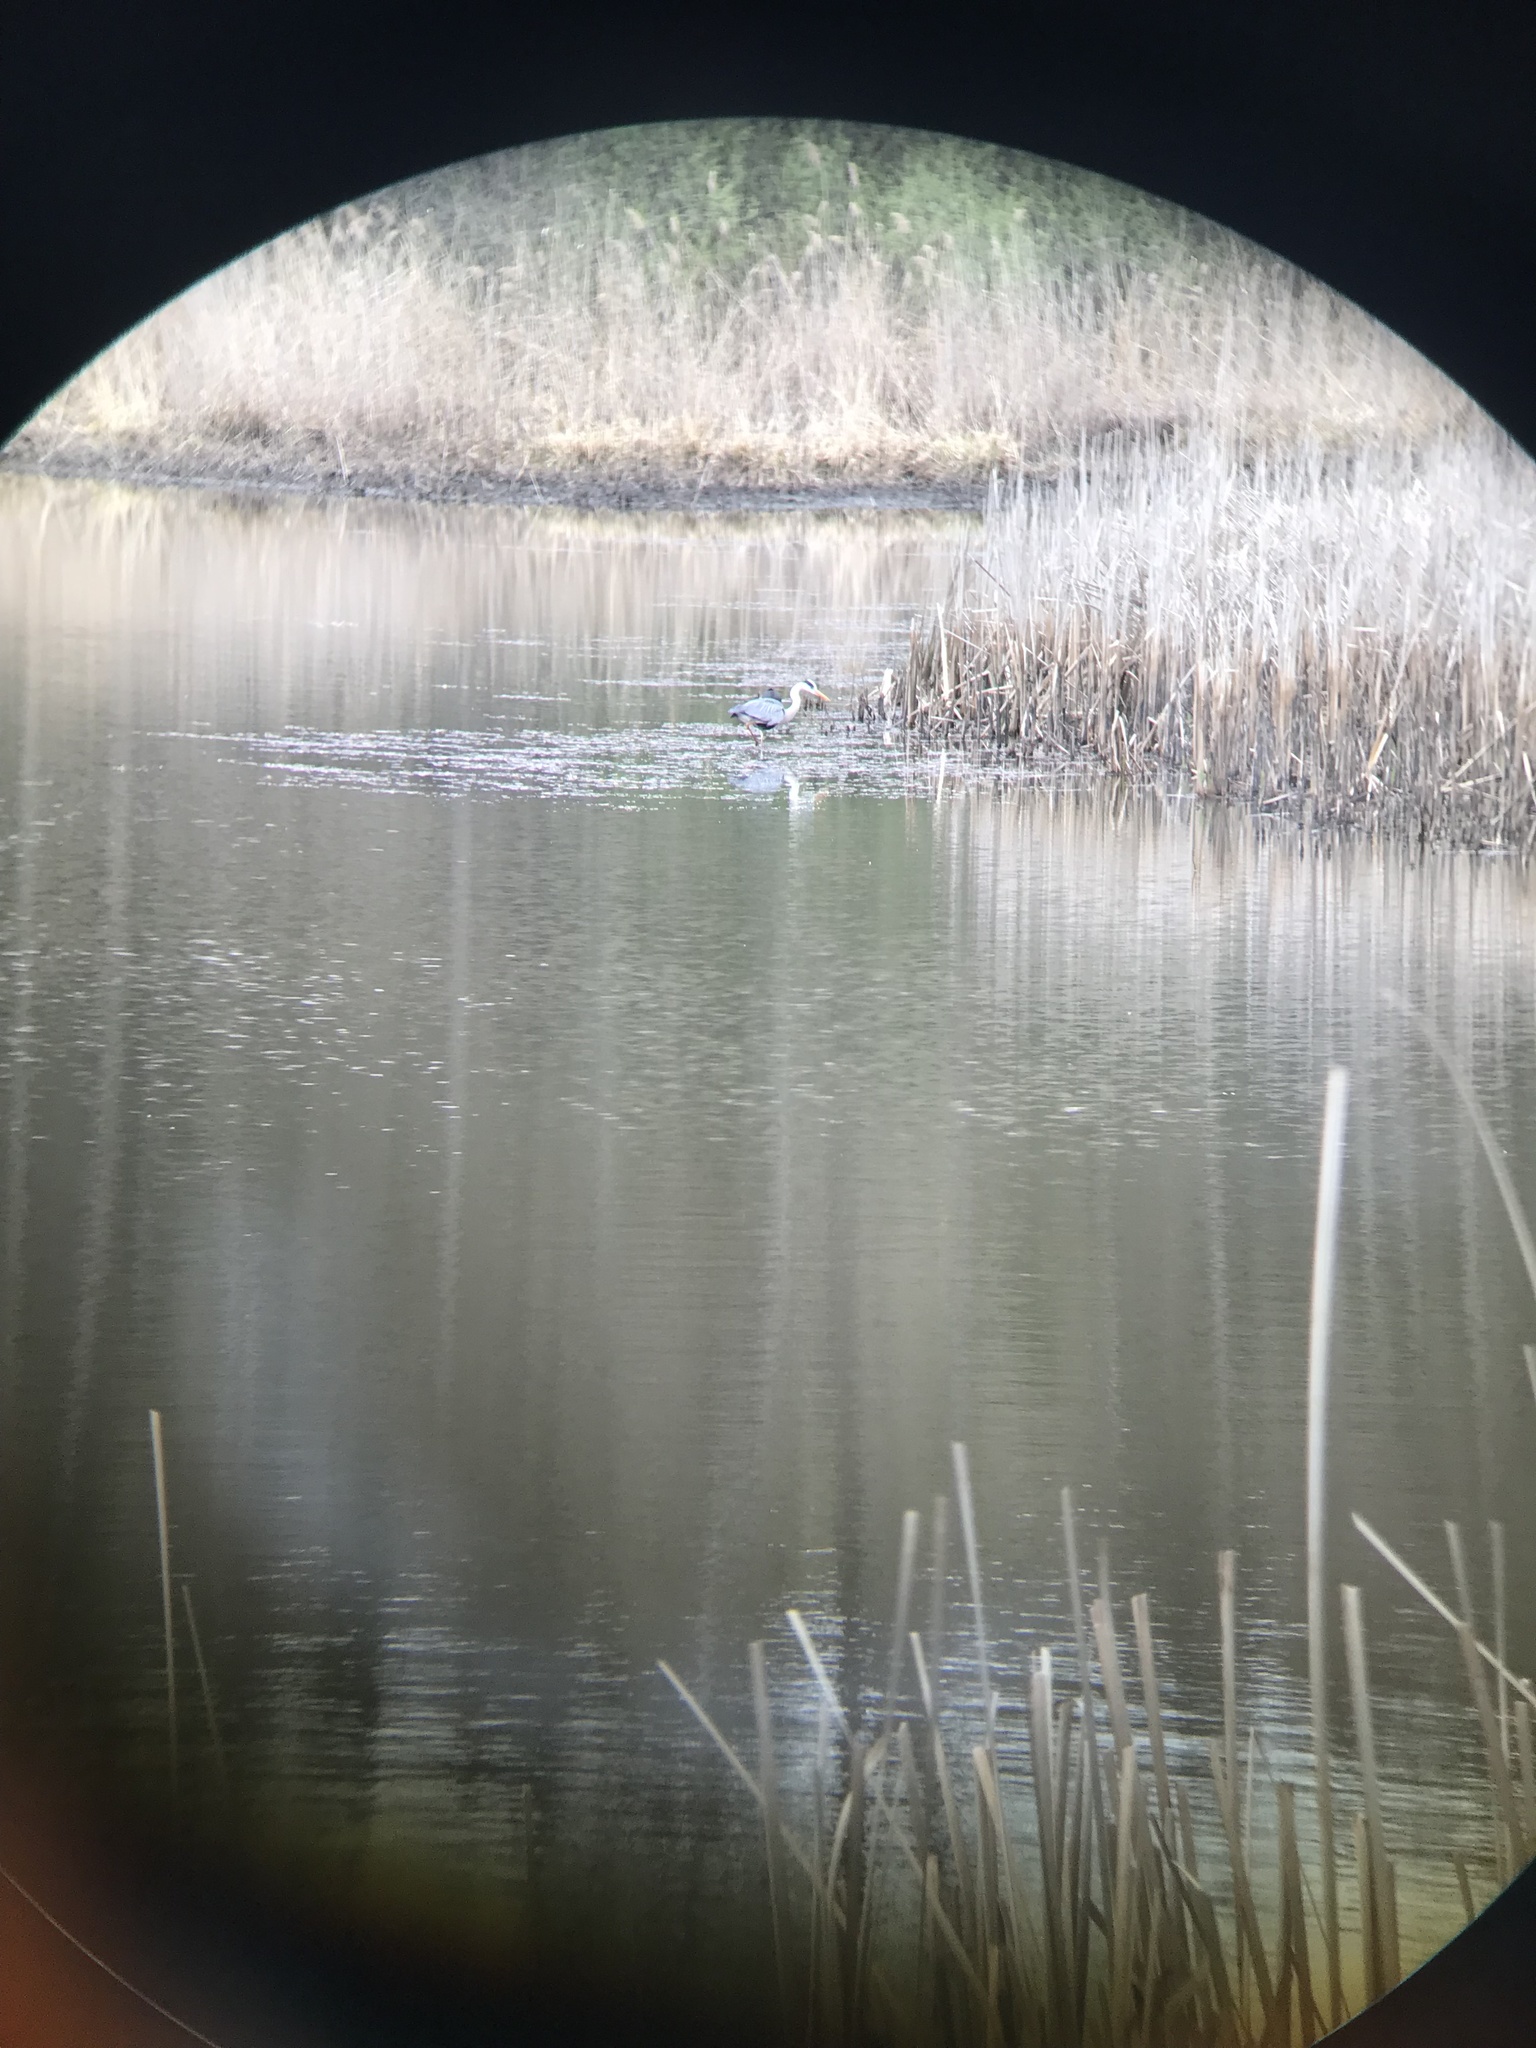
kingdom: Animalia
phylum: Chordata
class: Aves
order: Pelecaniformes
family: Ardeidae
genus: Ardea
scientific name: Ardea cinerea
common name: Grey heron
